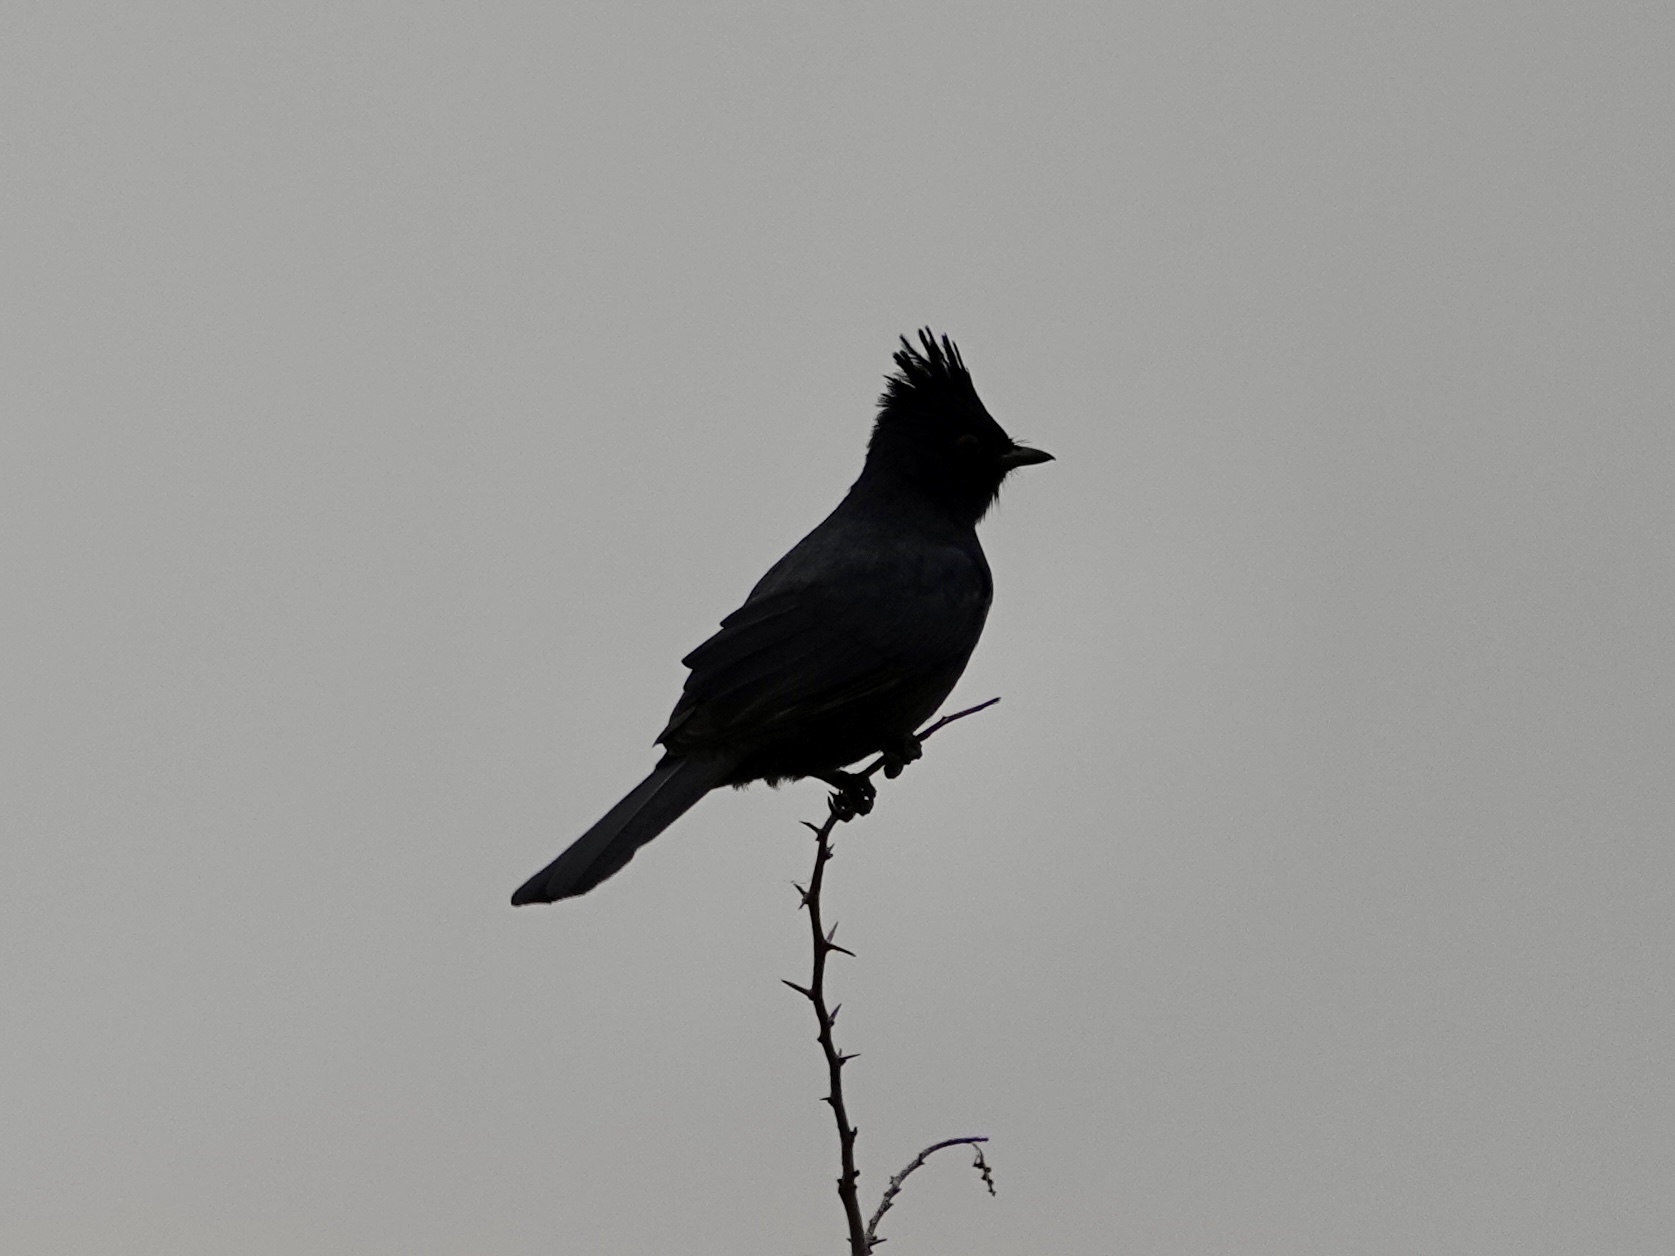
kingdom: Animalia
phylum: Chordata
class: Aves
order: Passeriformes
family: Ptilogonatidae
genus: Phainopepla
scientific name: Phainopepla nitens
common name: Phainopepla
